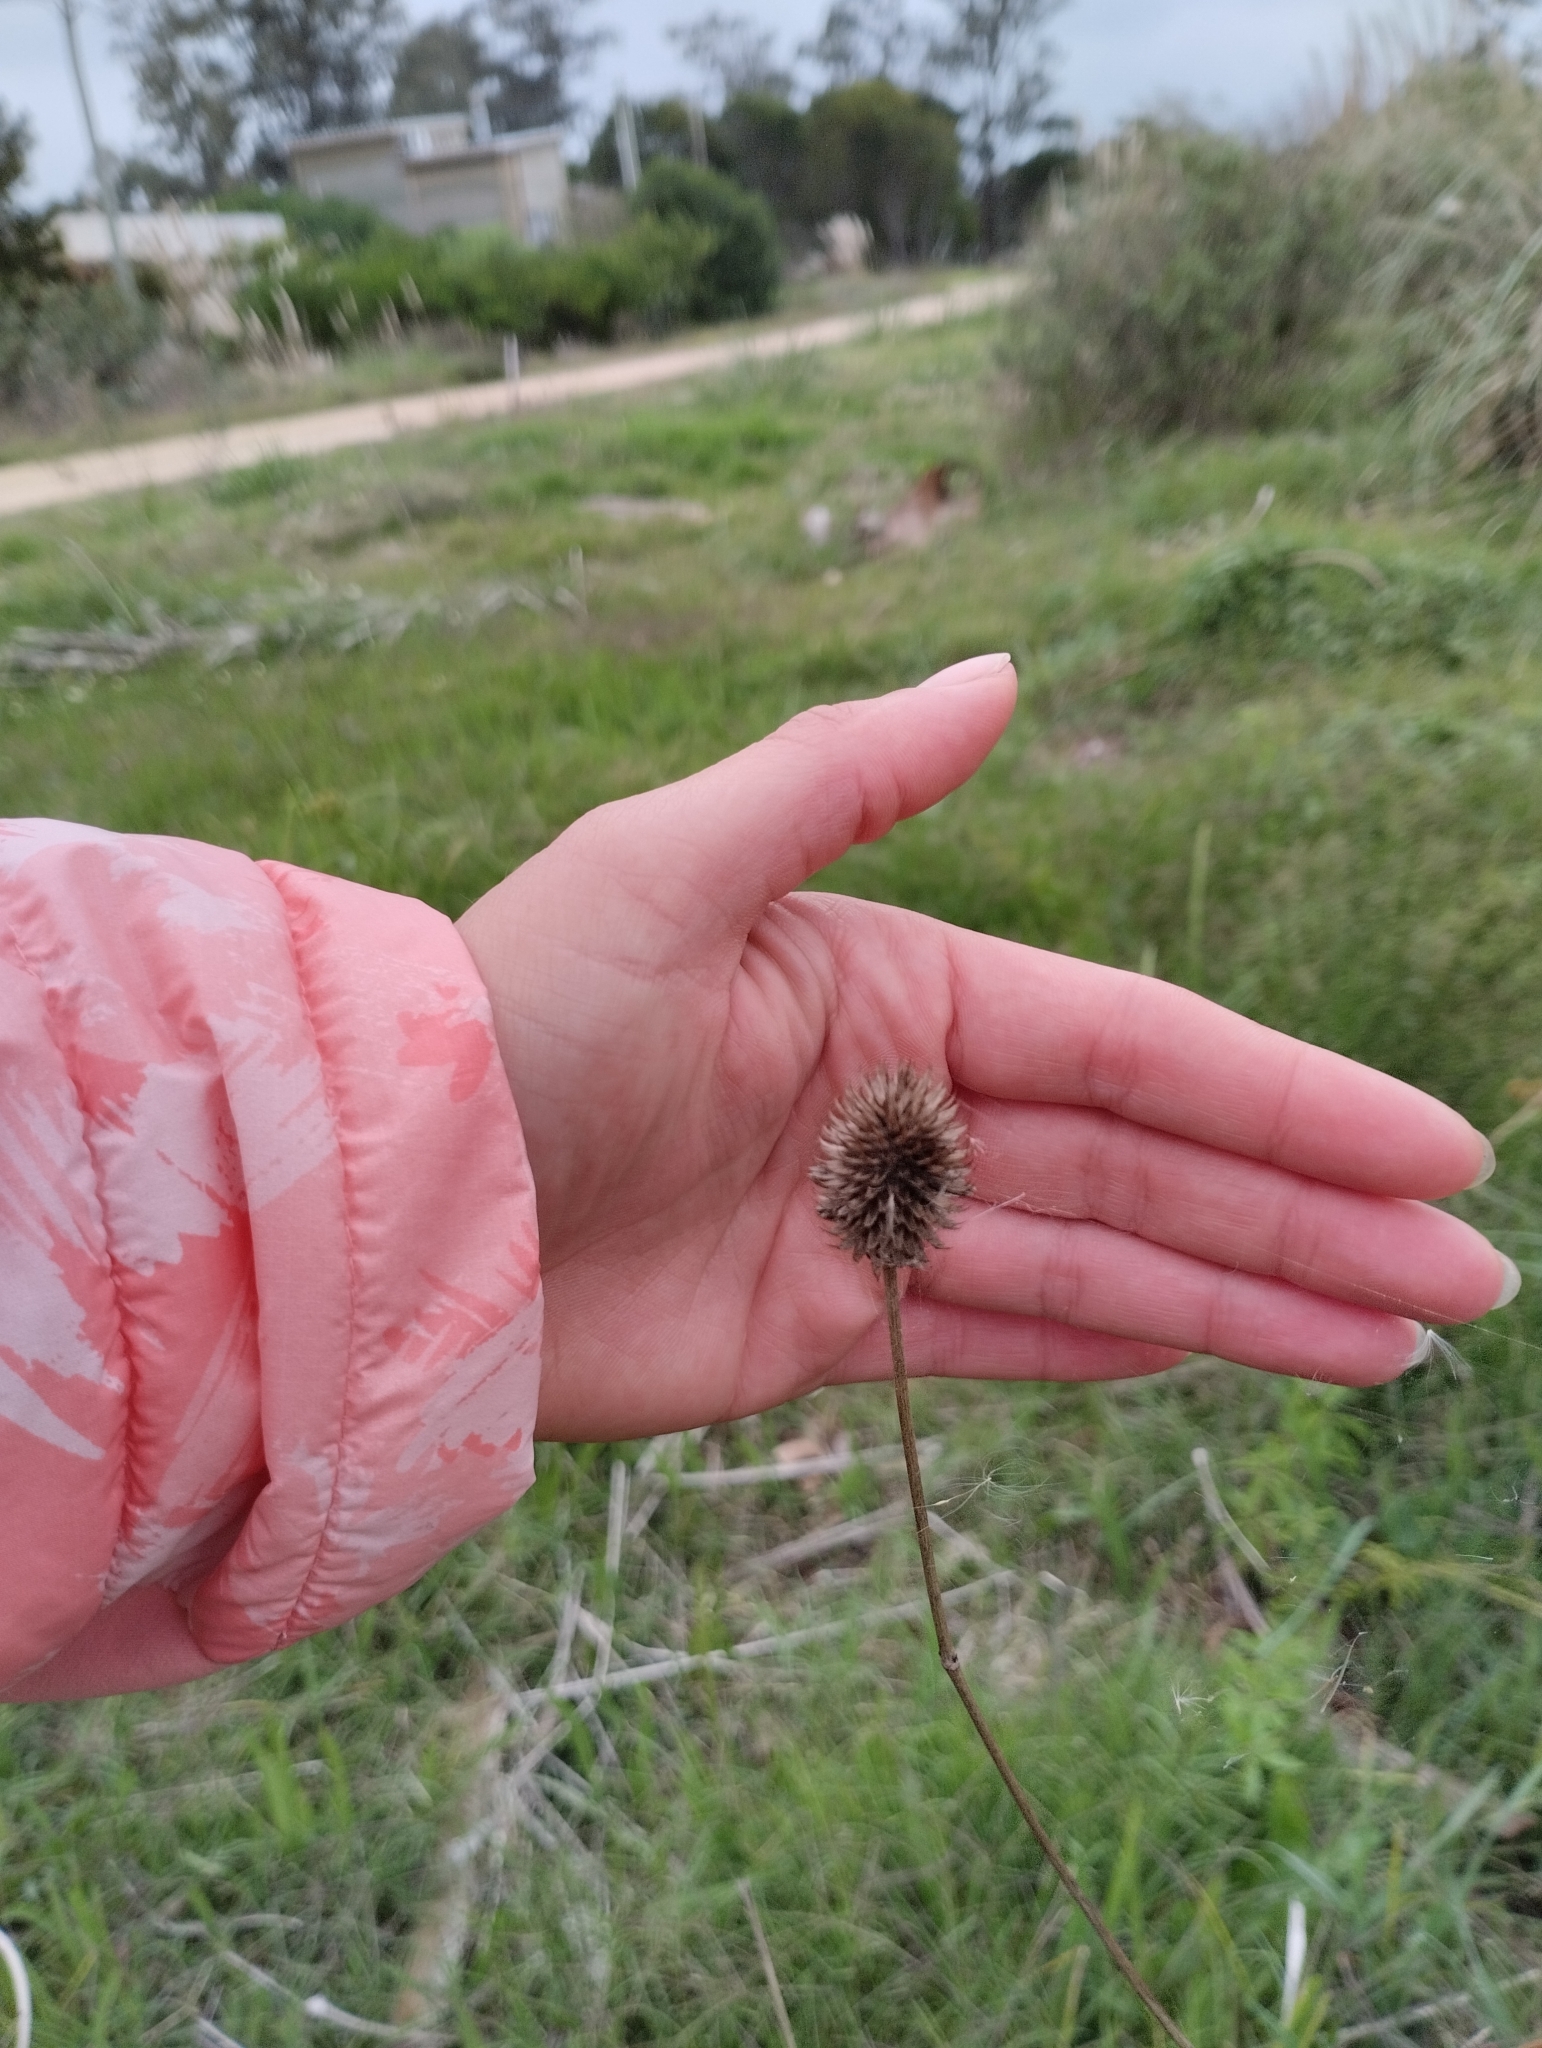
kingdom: Plantae
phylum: Tracheophyta
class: Magnoliopsida
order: Apiales
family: Apiaceae
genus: Eryngium
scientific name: Eryngium sanguisorba
